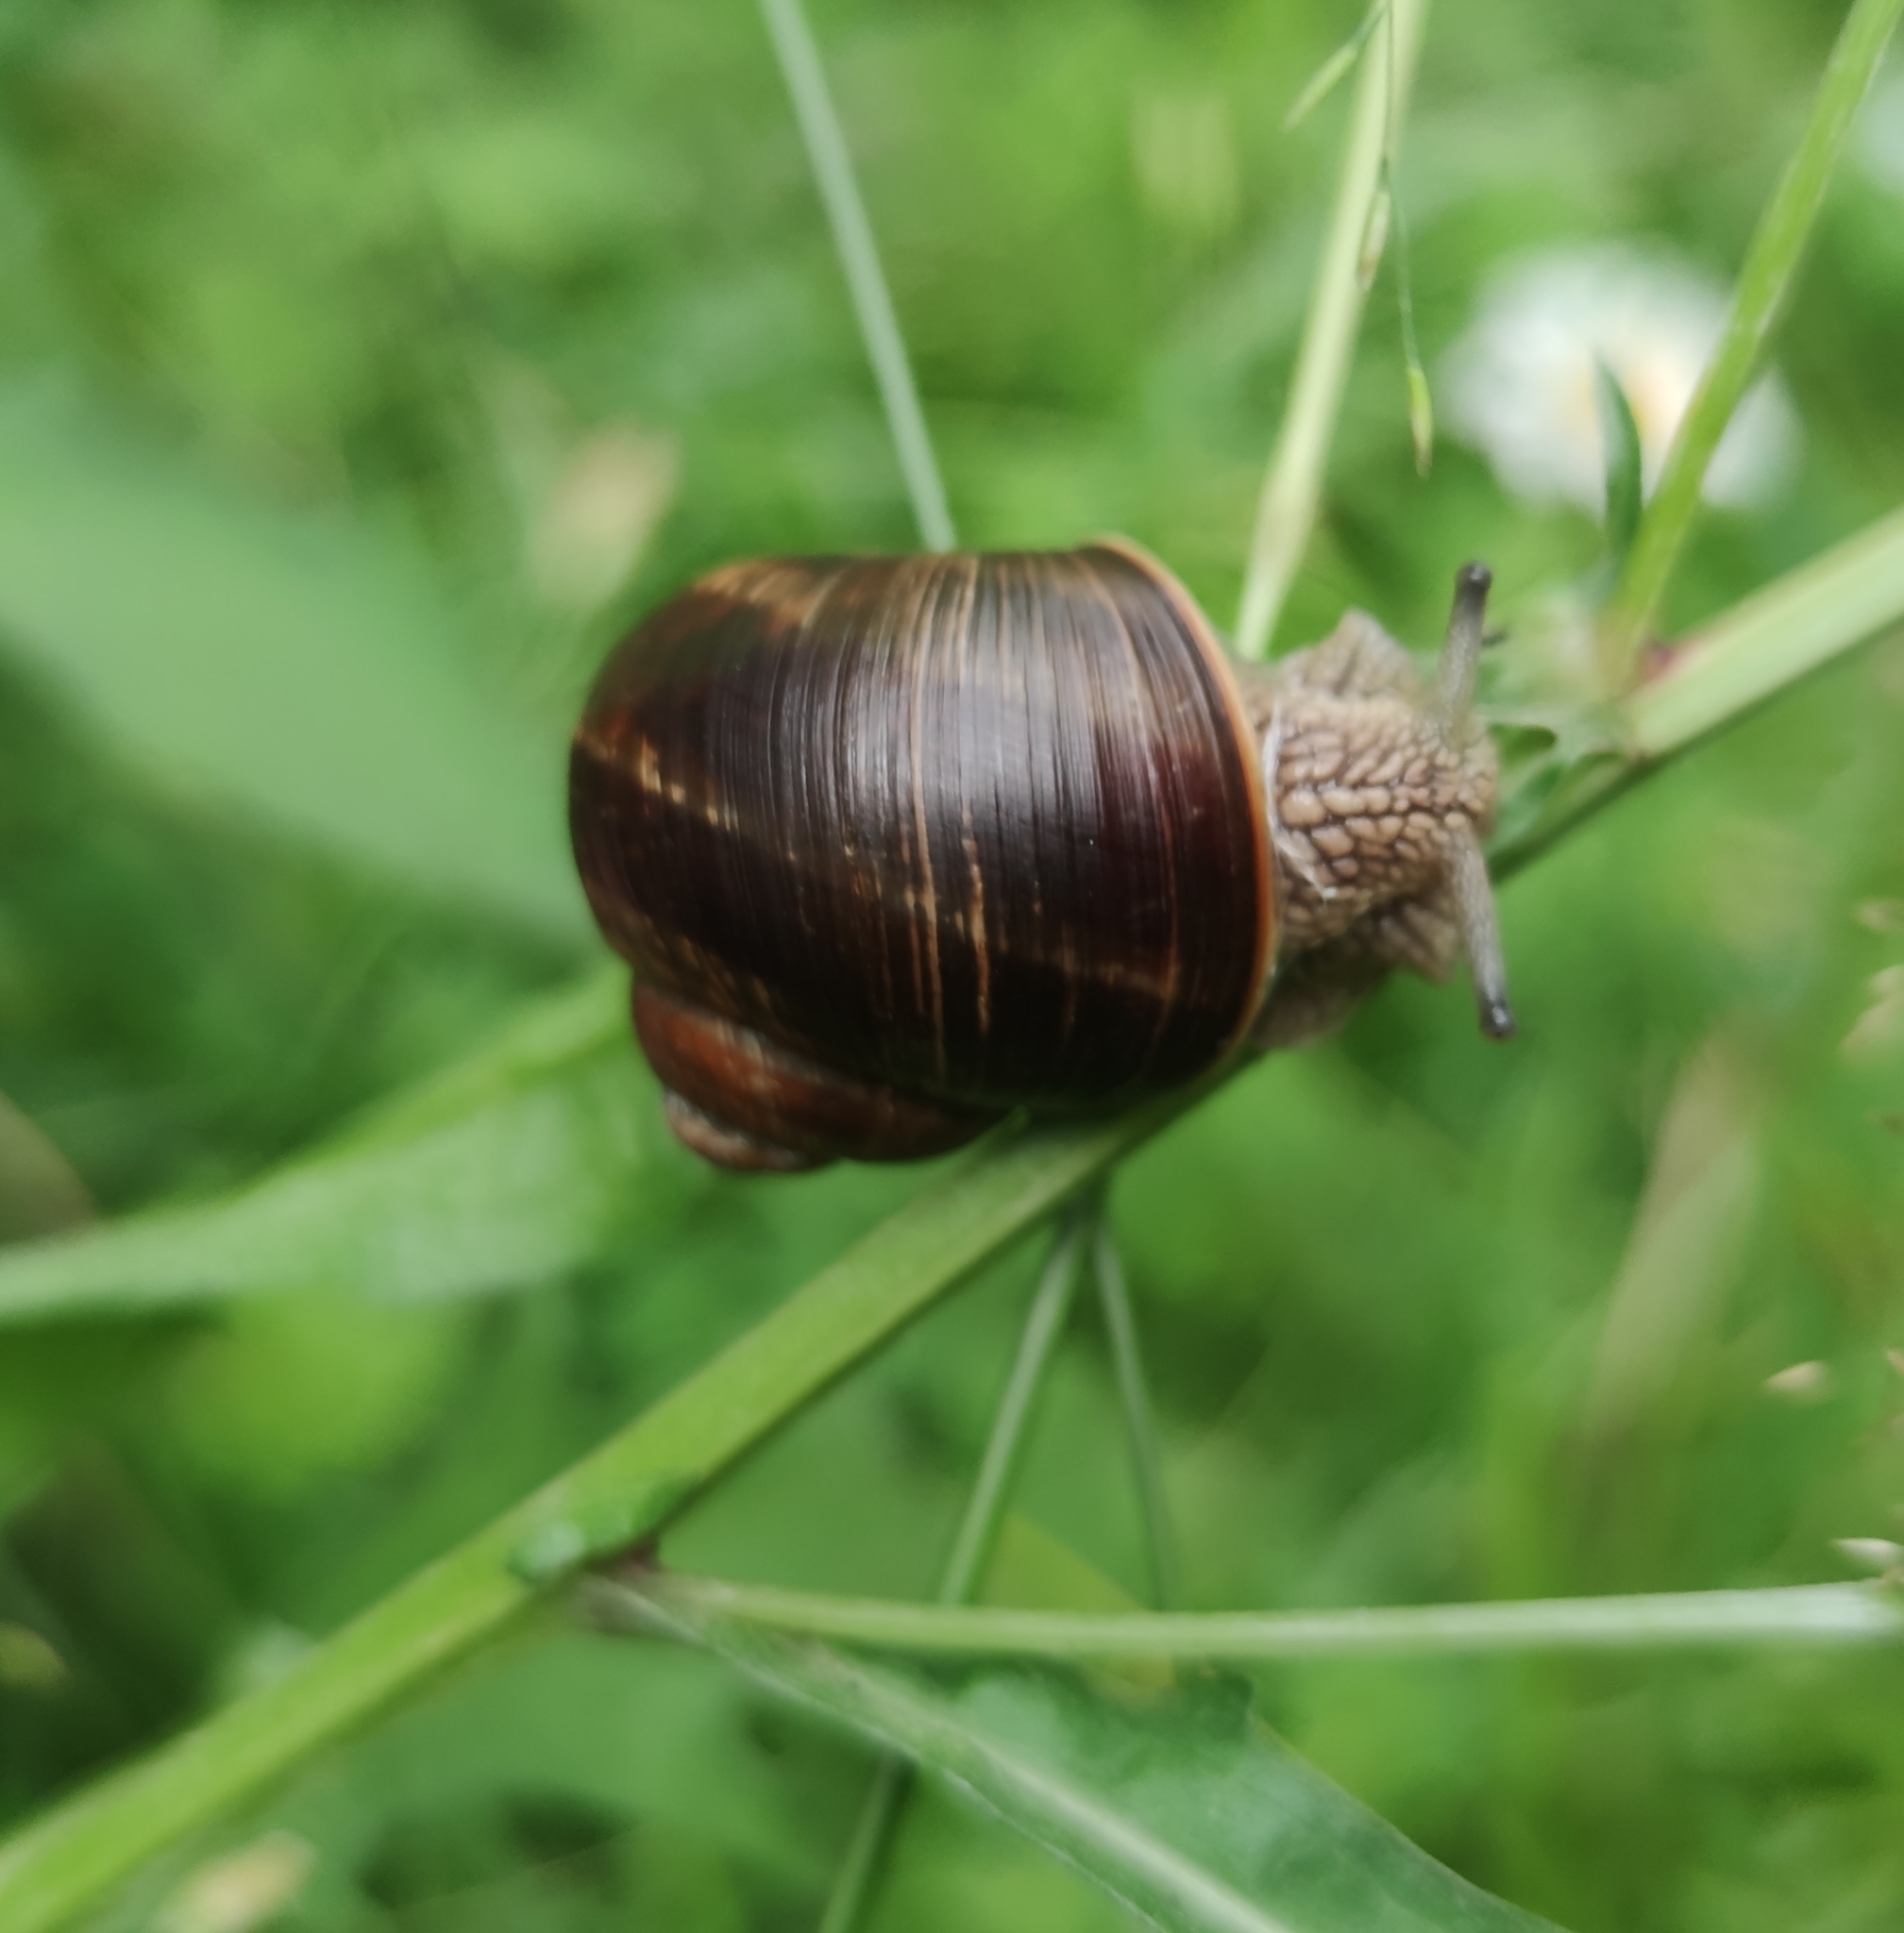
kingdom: Animalia
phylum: Mollusca
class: Gastropoda
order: Stylommatophora
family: Helicidae
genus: Helix
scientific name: Helix pomatia
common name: Roman snail
